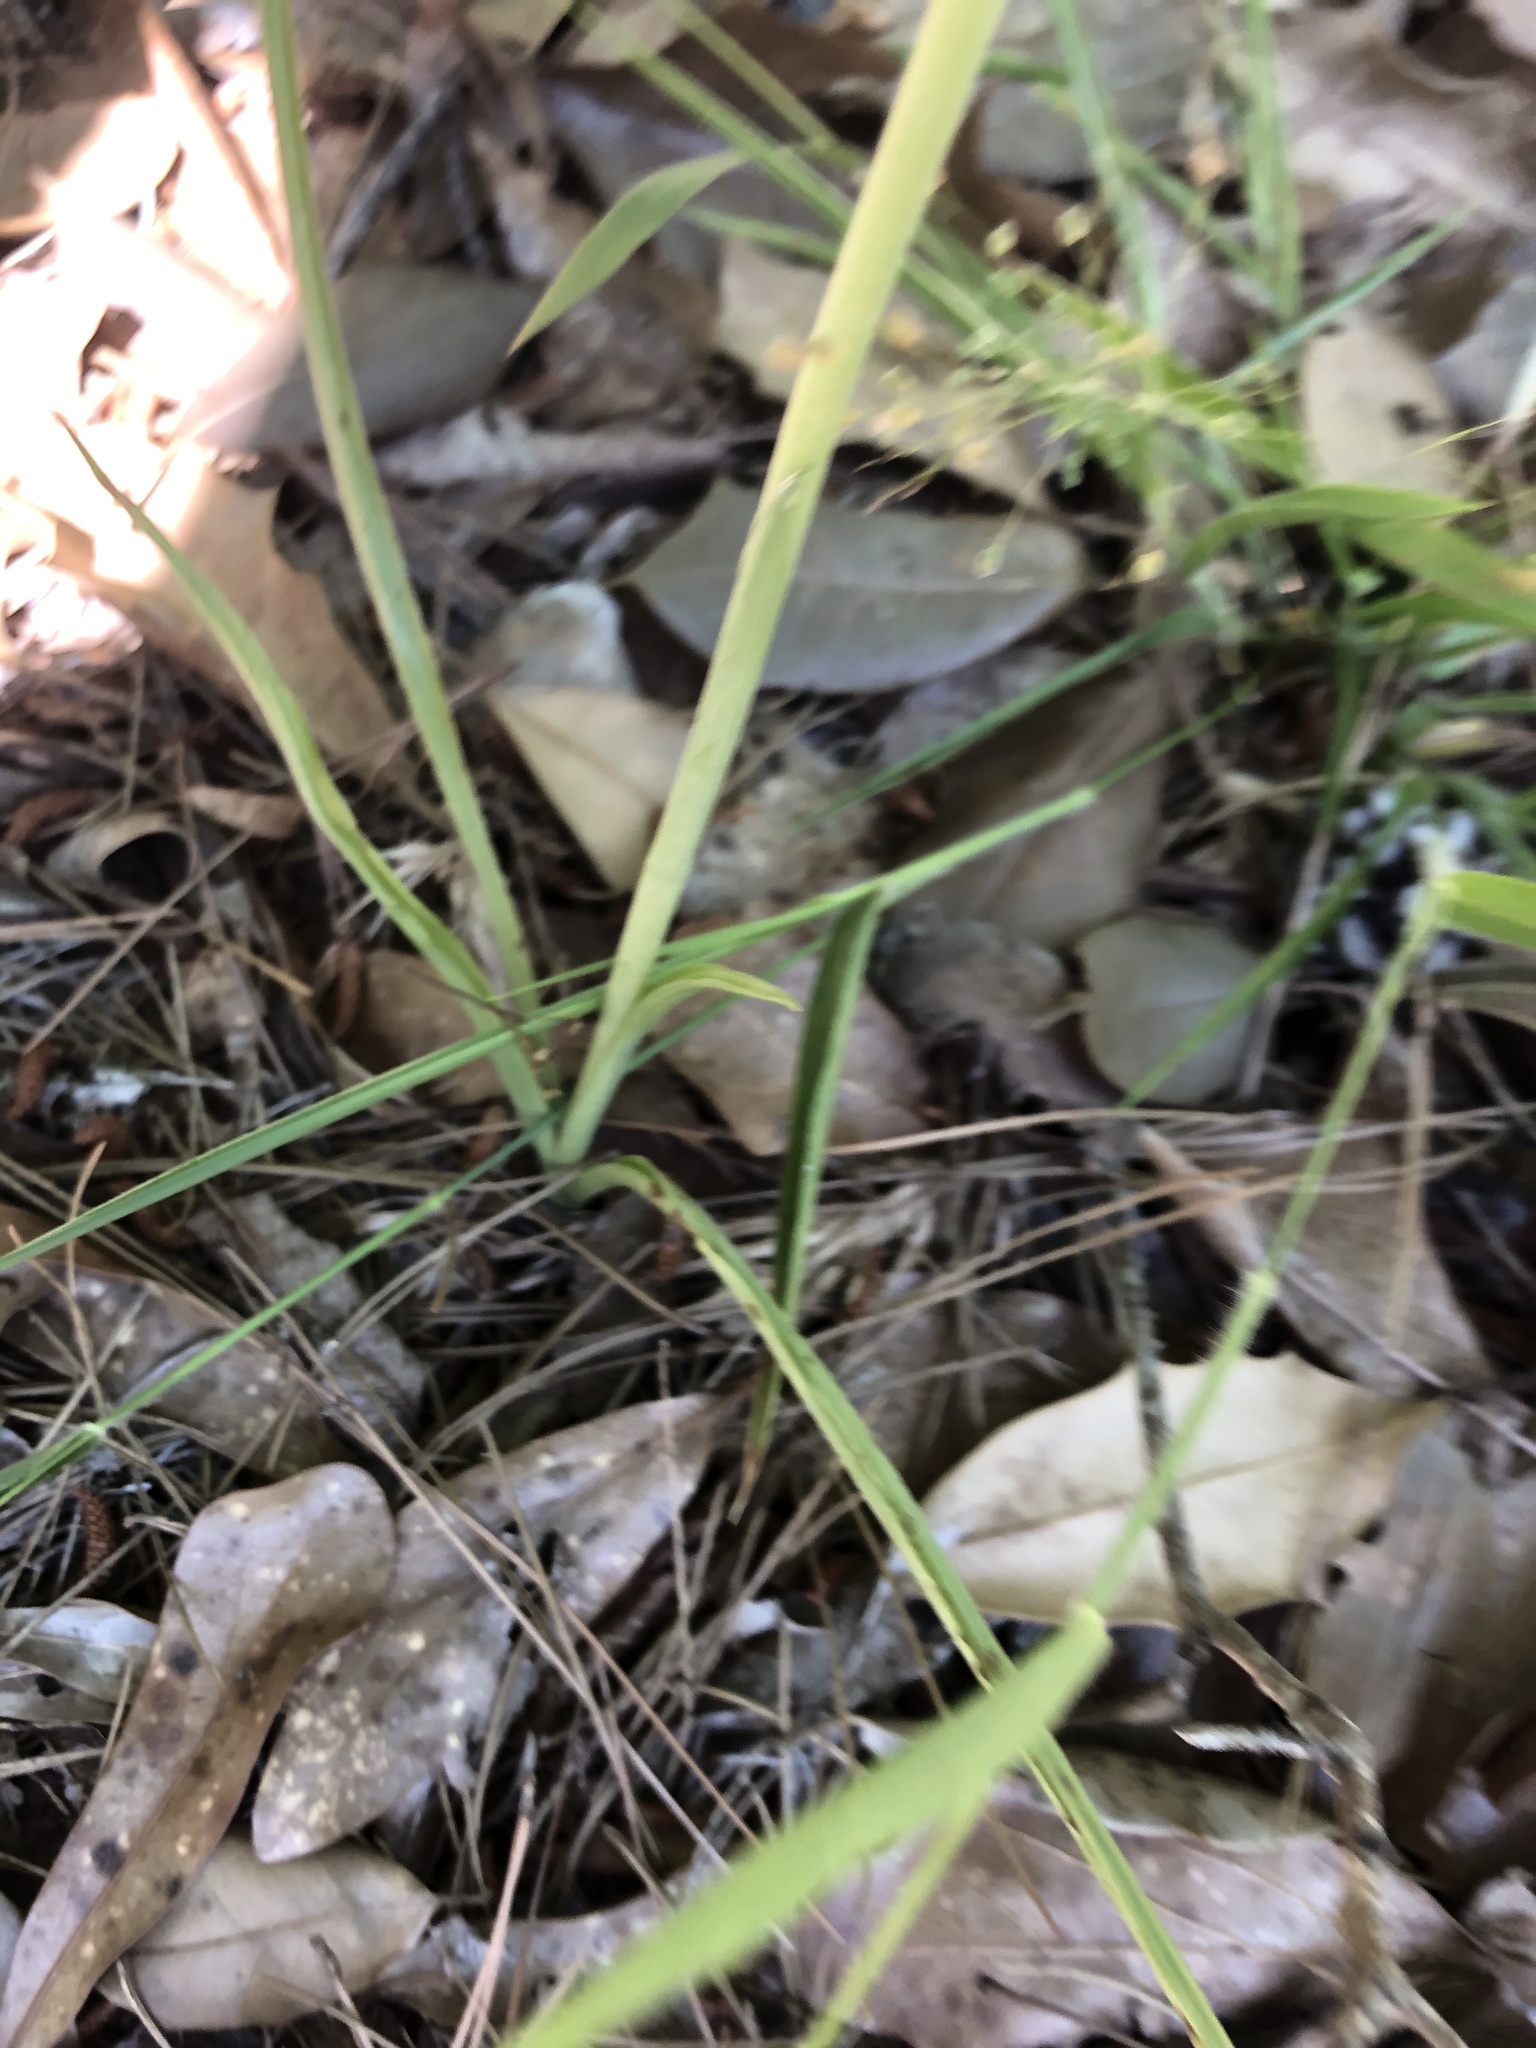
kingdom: Plantae
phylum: Tracheophyta
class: Liliopsida
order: Asparagales
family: Orchidaceae
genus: Spiranthes
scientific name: Spiranthes sylvatica
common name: Woodland lady's tresses
